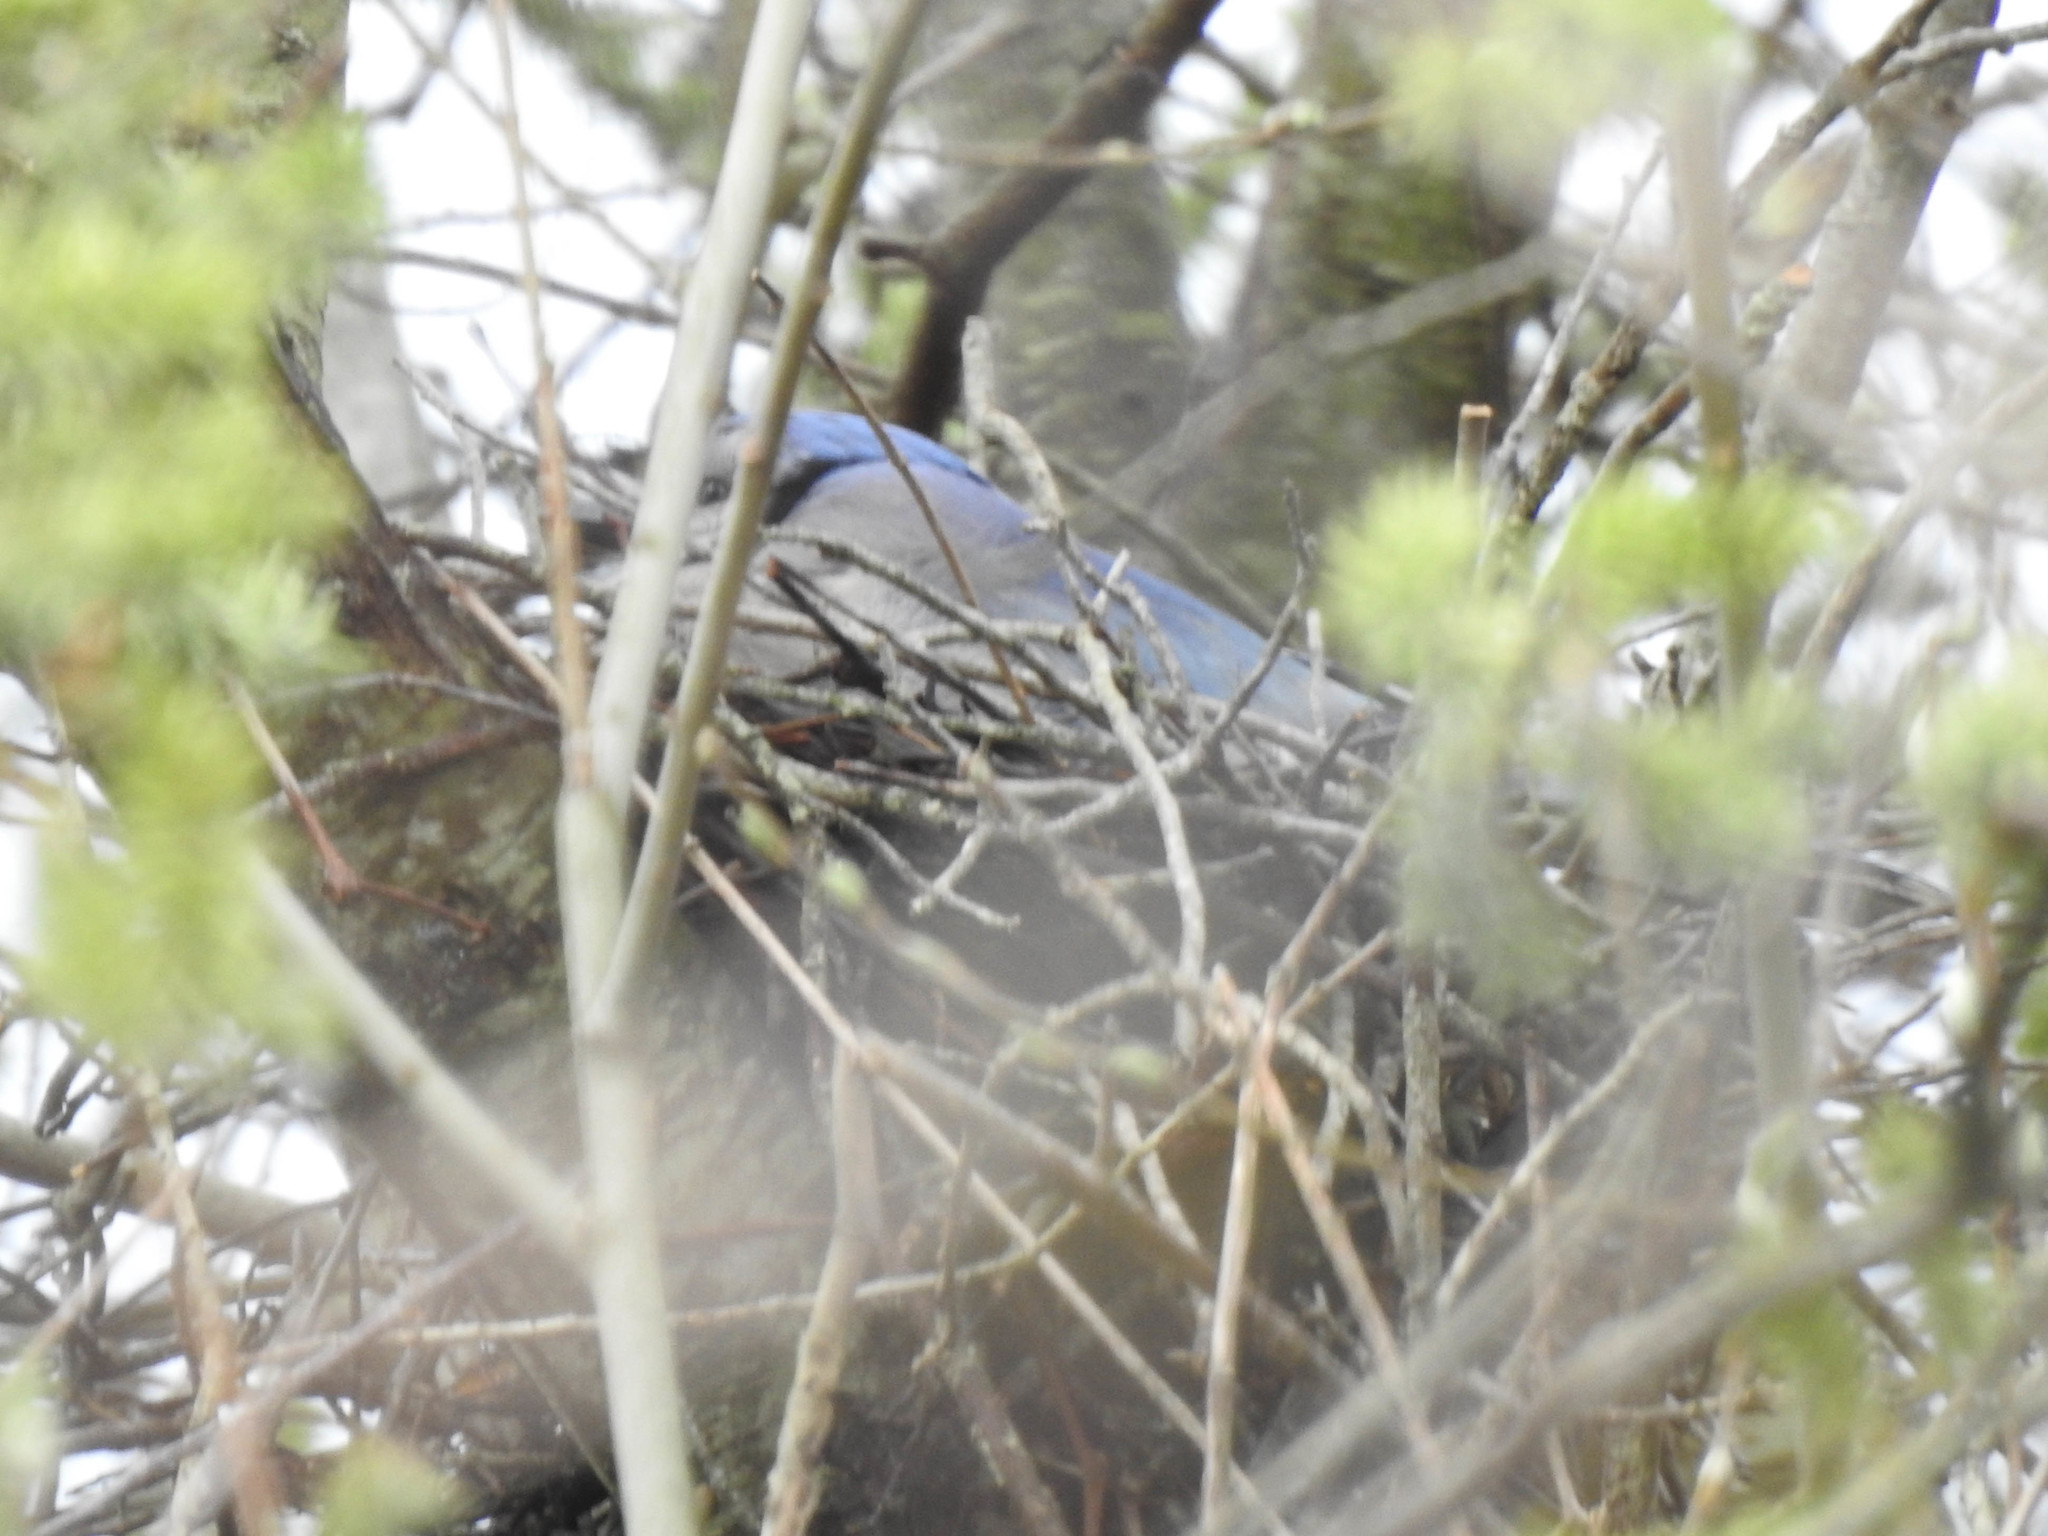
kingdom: Animalia
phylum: Chordata
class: Aves
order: Passeriformes
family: Corvidae
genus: Cyanocitta
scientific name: Cyanocitta cristata
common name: Blue jay
